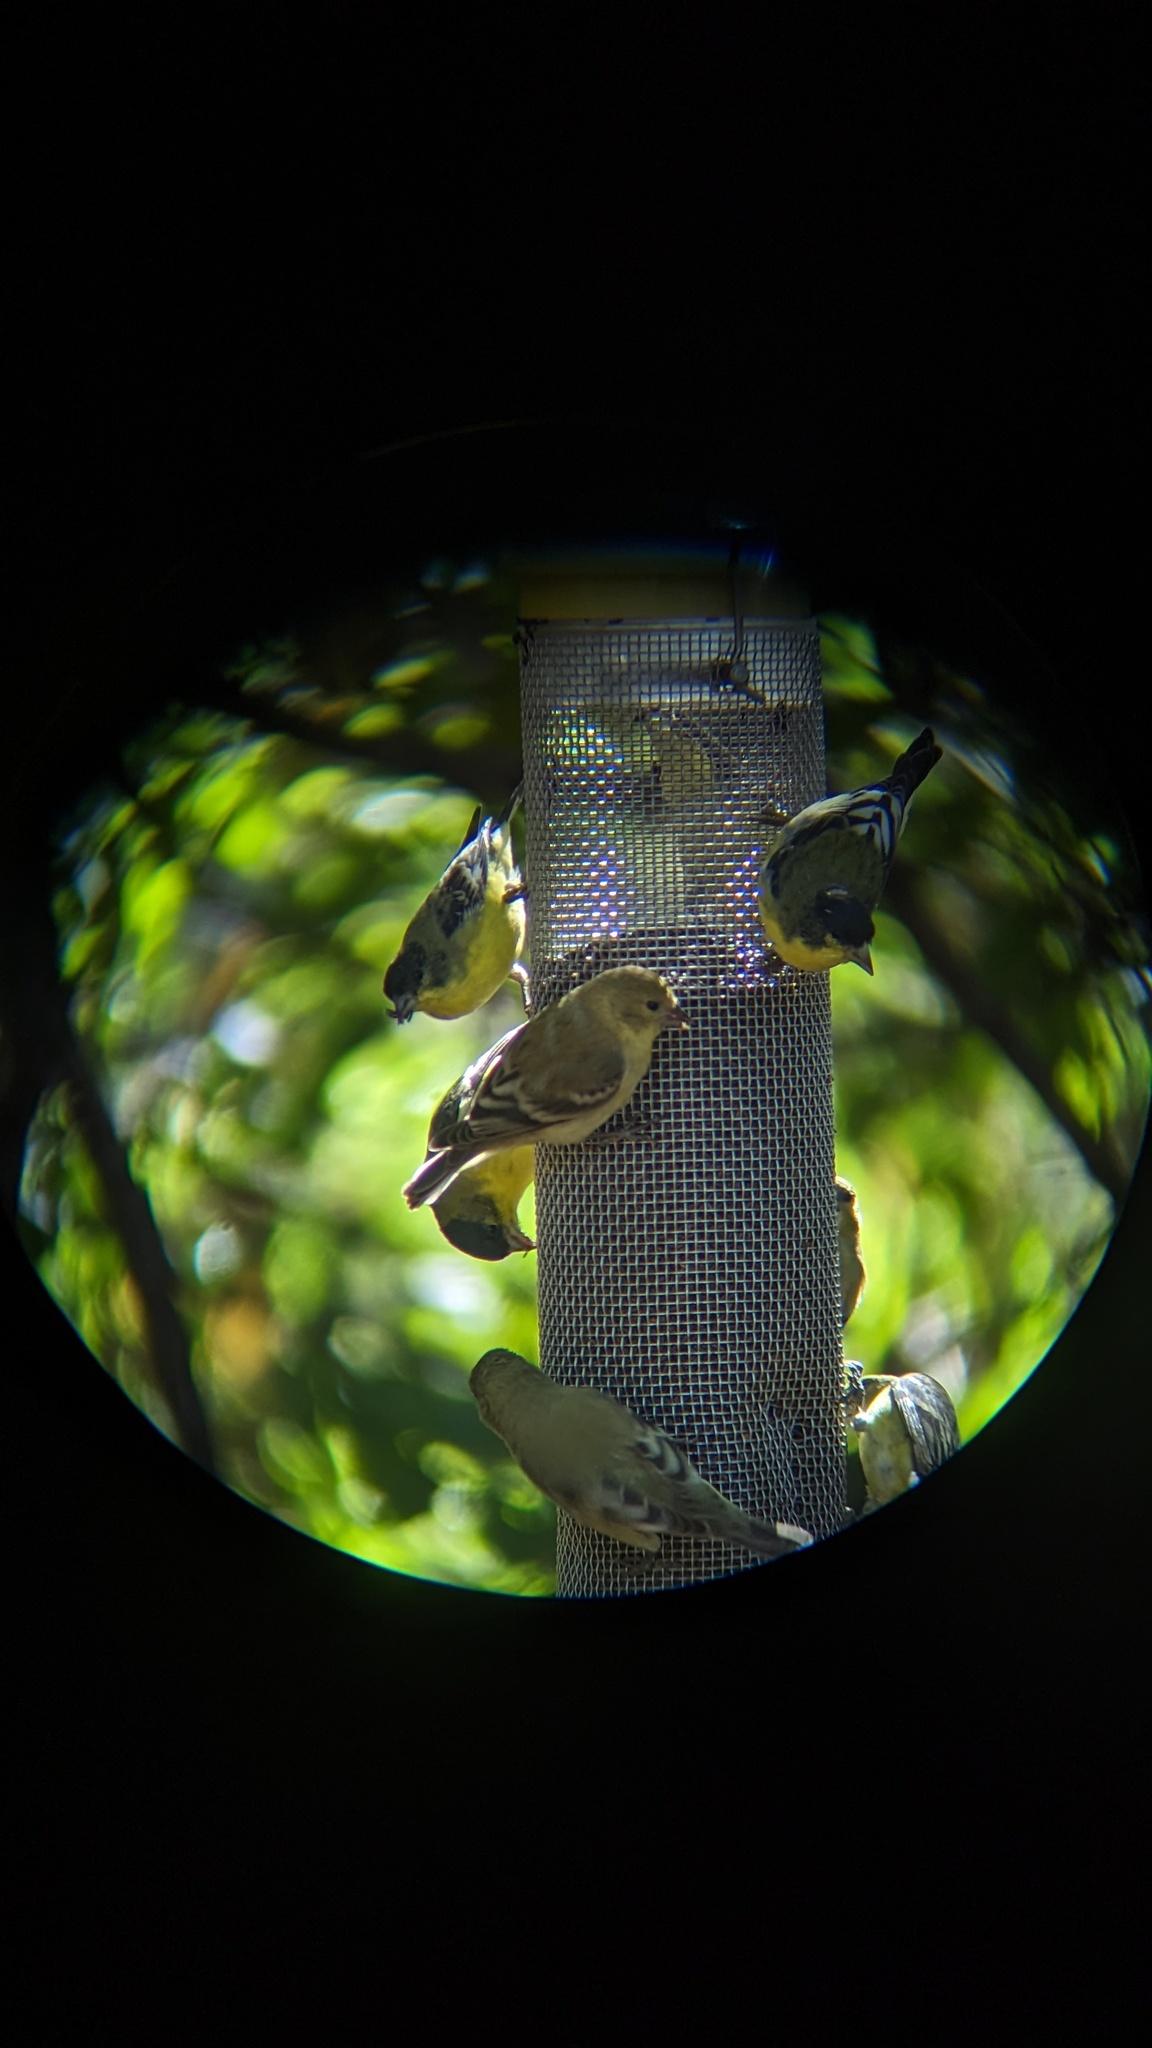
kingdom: Animalia
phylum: Chordata
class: Aves
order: Passeriformes
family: Fringillidae
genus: Spinus
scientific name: Spinus psaltria
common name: Lesser goldfinch
